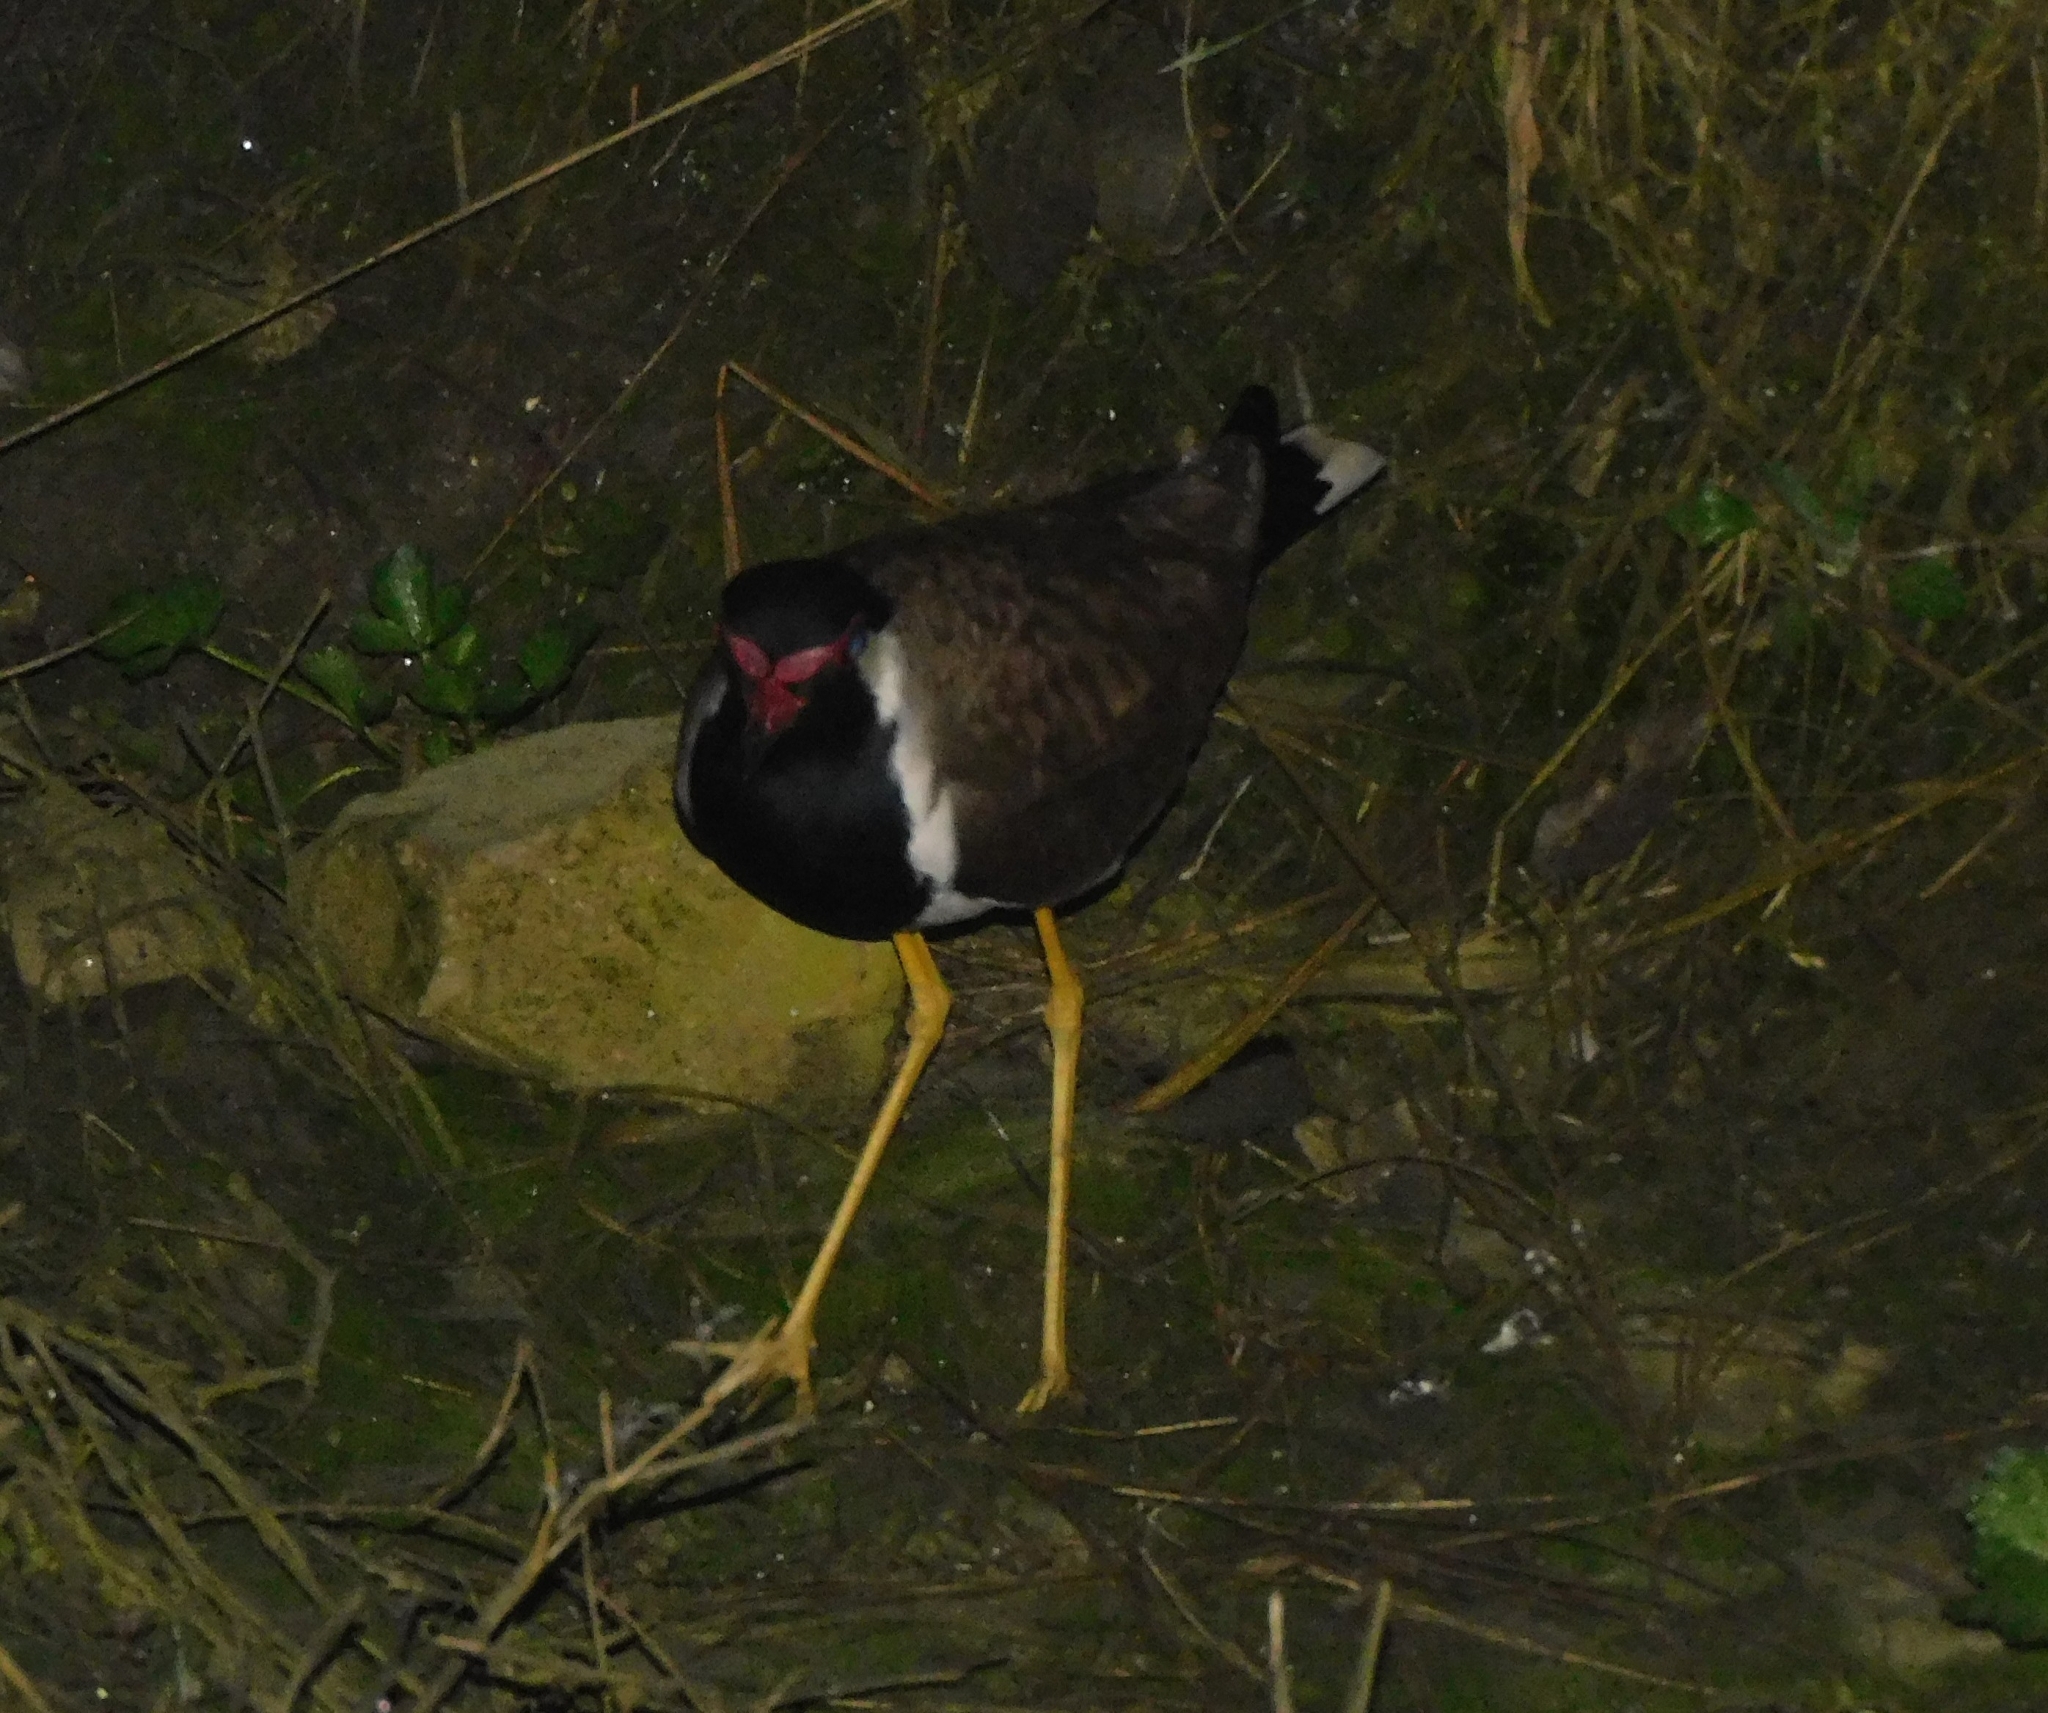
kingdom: Animalia
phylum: Chordata
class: Aves
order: Charadriiformes
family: Charadriidae
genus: Vanellus
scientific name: Vanellus indicus
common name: Red-wattled lapwing
